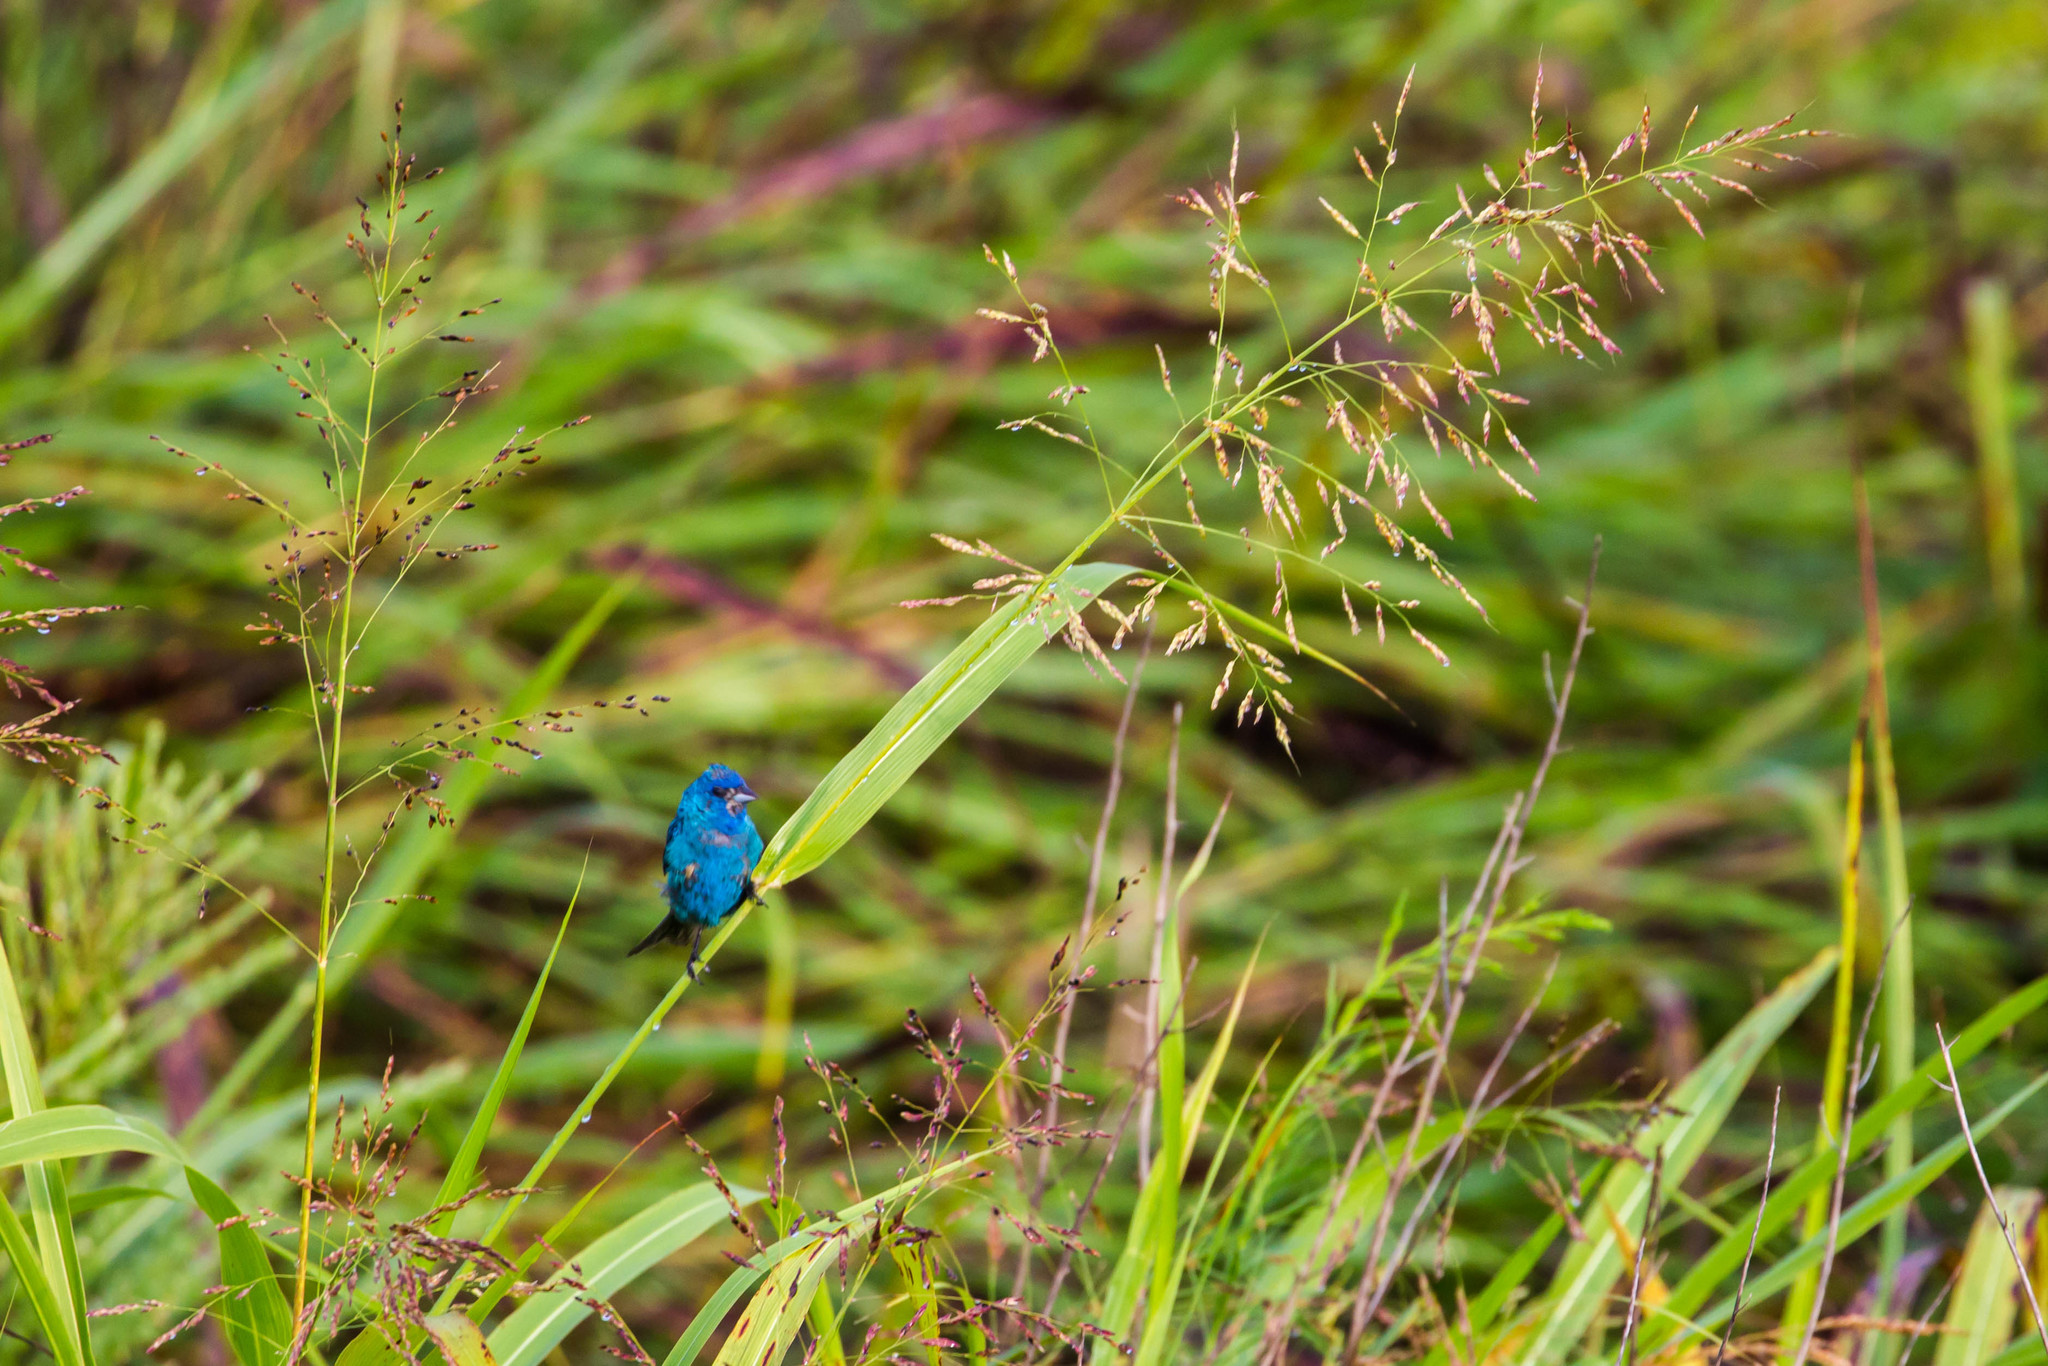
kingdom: Animalia
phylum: Chordata
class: Aves
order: Passeriformes
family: Cardinalidae
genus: Passerina
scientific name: Passerina cyanea
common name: Indigo bunting
